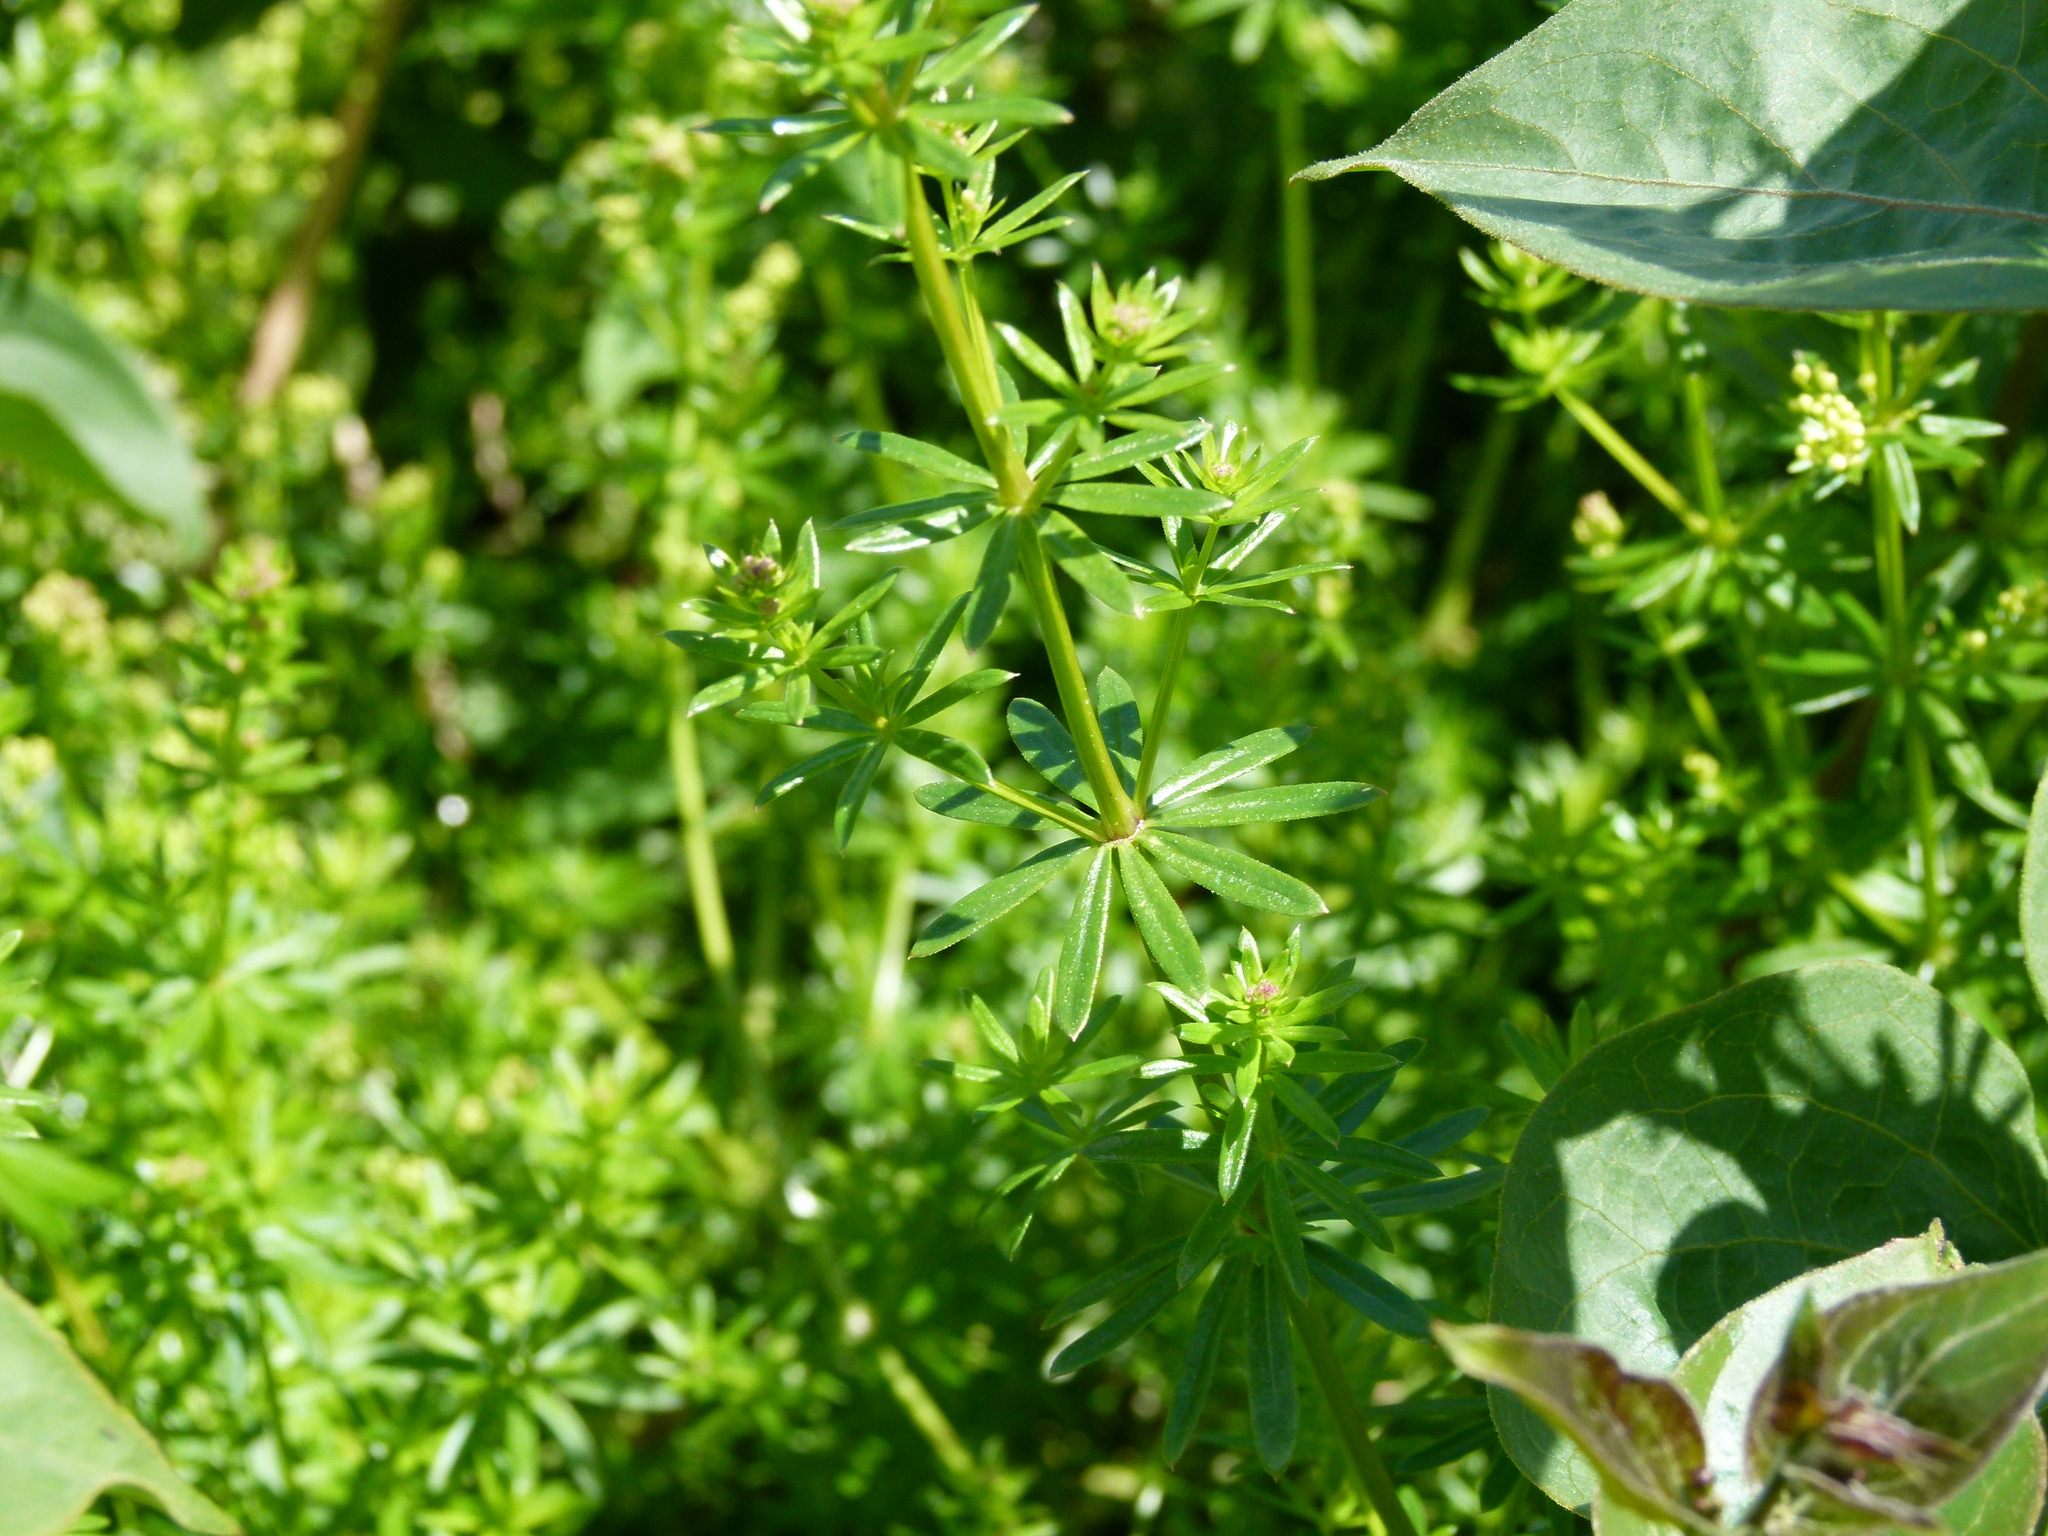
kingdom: Plantae
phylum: Tracheophyta
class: Magnoliopsida
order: Gentianales
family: Rubiaceae
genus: Galium
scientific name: Galium mollugo
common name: Hedge bedstraw
